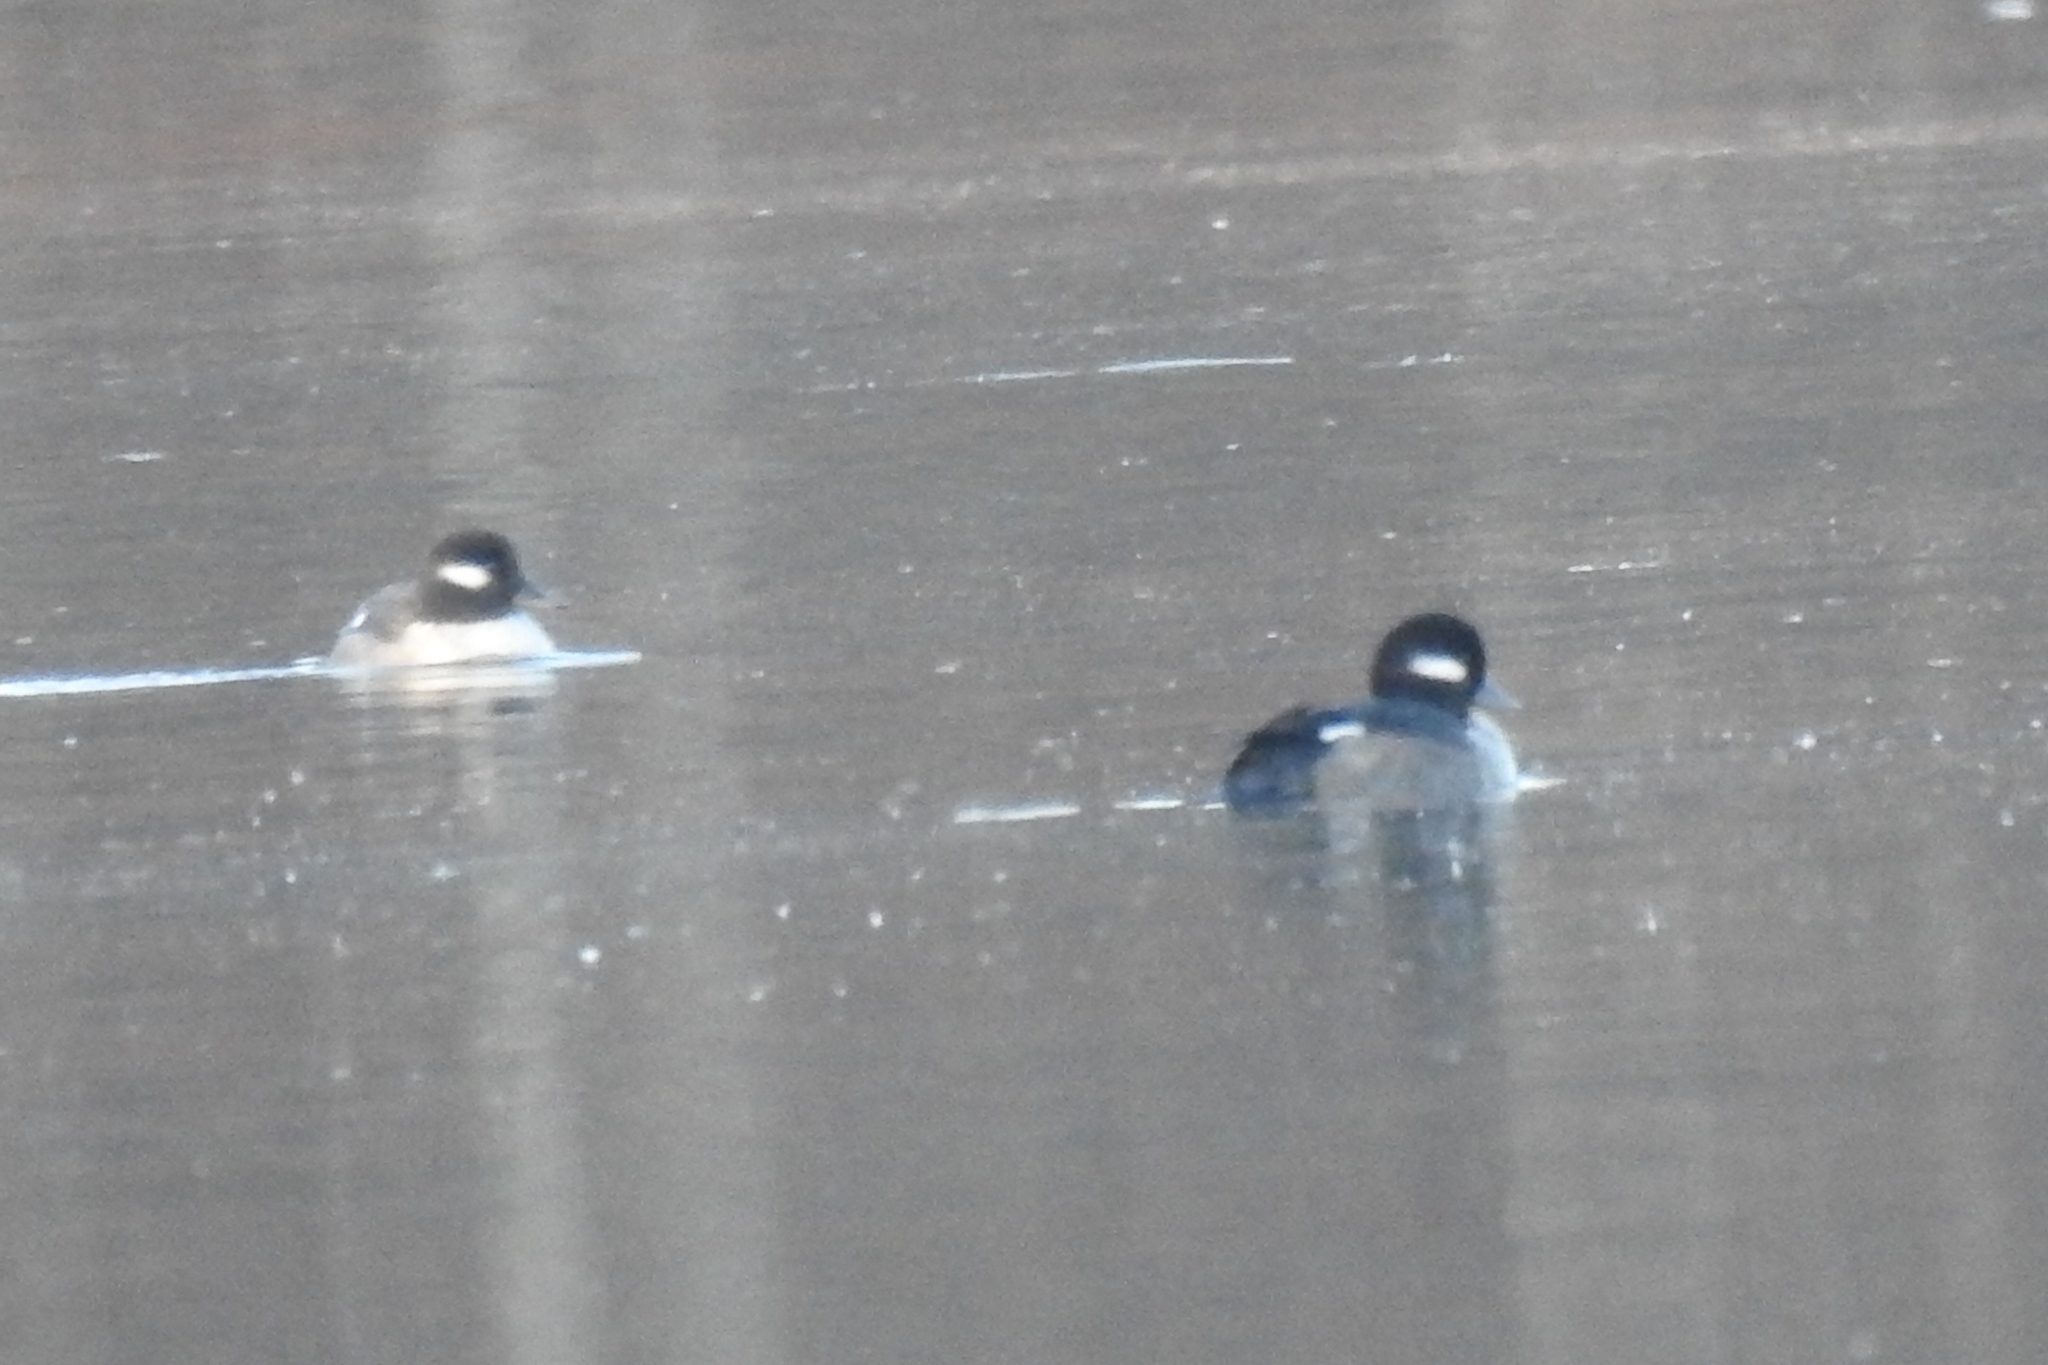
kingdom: Animalia
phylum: Chordata
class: Aves
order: Anseriformes
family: Anatidae
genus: Bucephala
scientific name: Bucephala albeola
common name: Bufflehead
